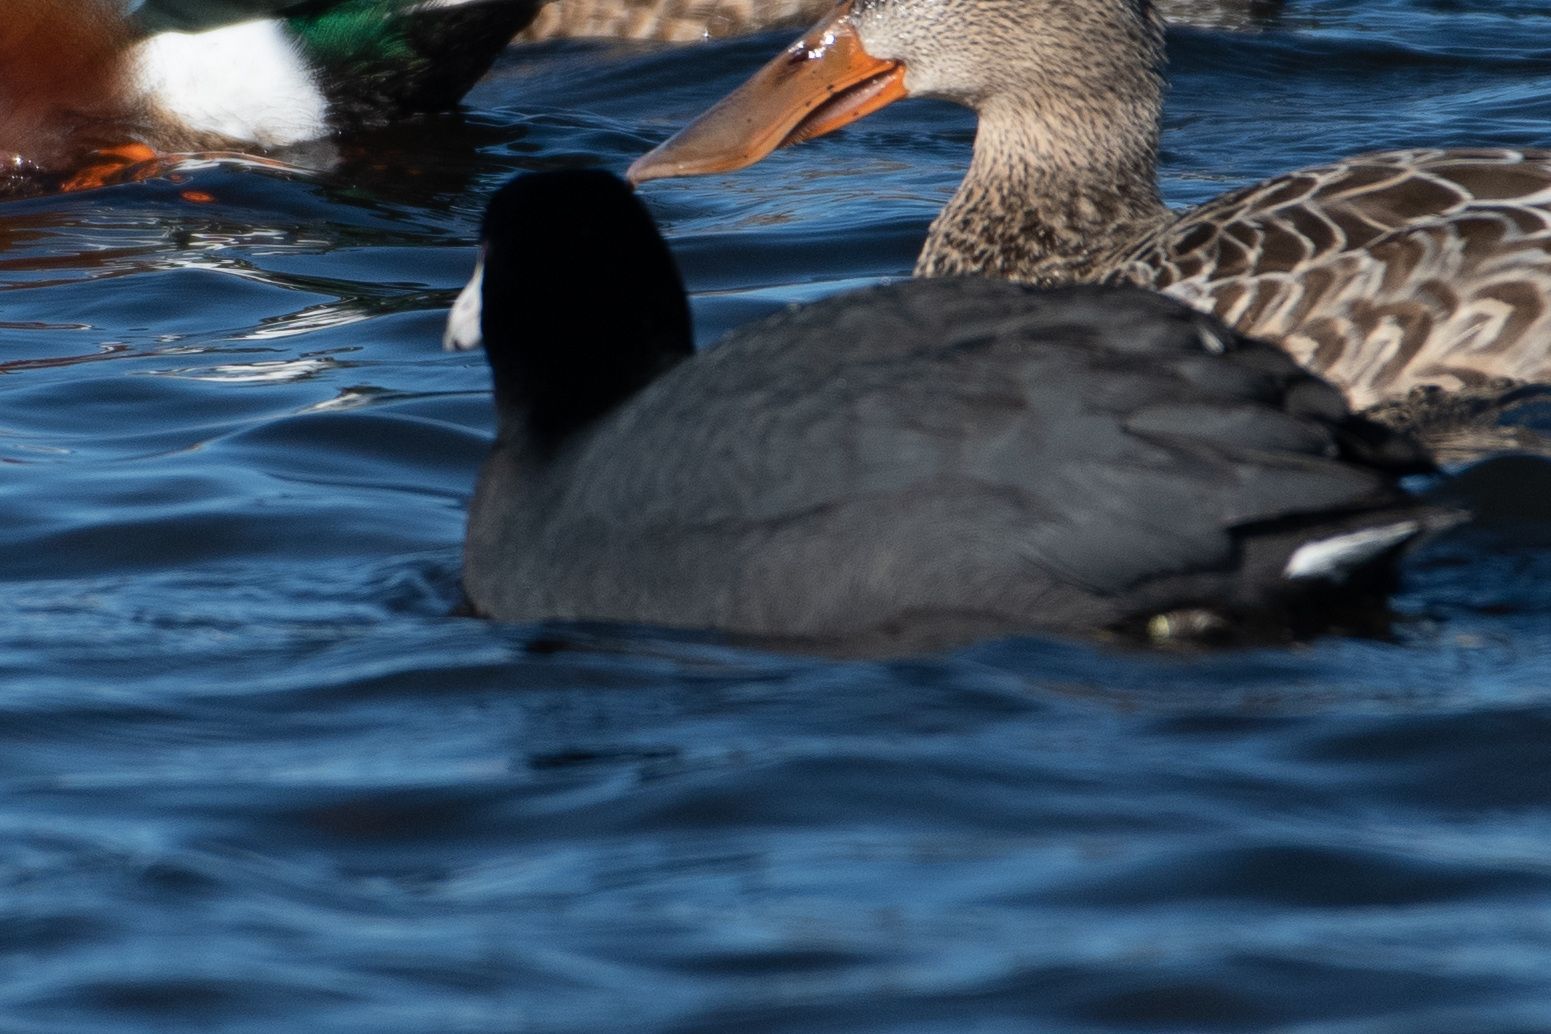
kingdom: Animalia
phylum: Chordata
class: Aves
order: Gruiformes
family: Rallidae
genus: Fulica
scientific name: Fulica americana
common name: American coot
